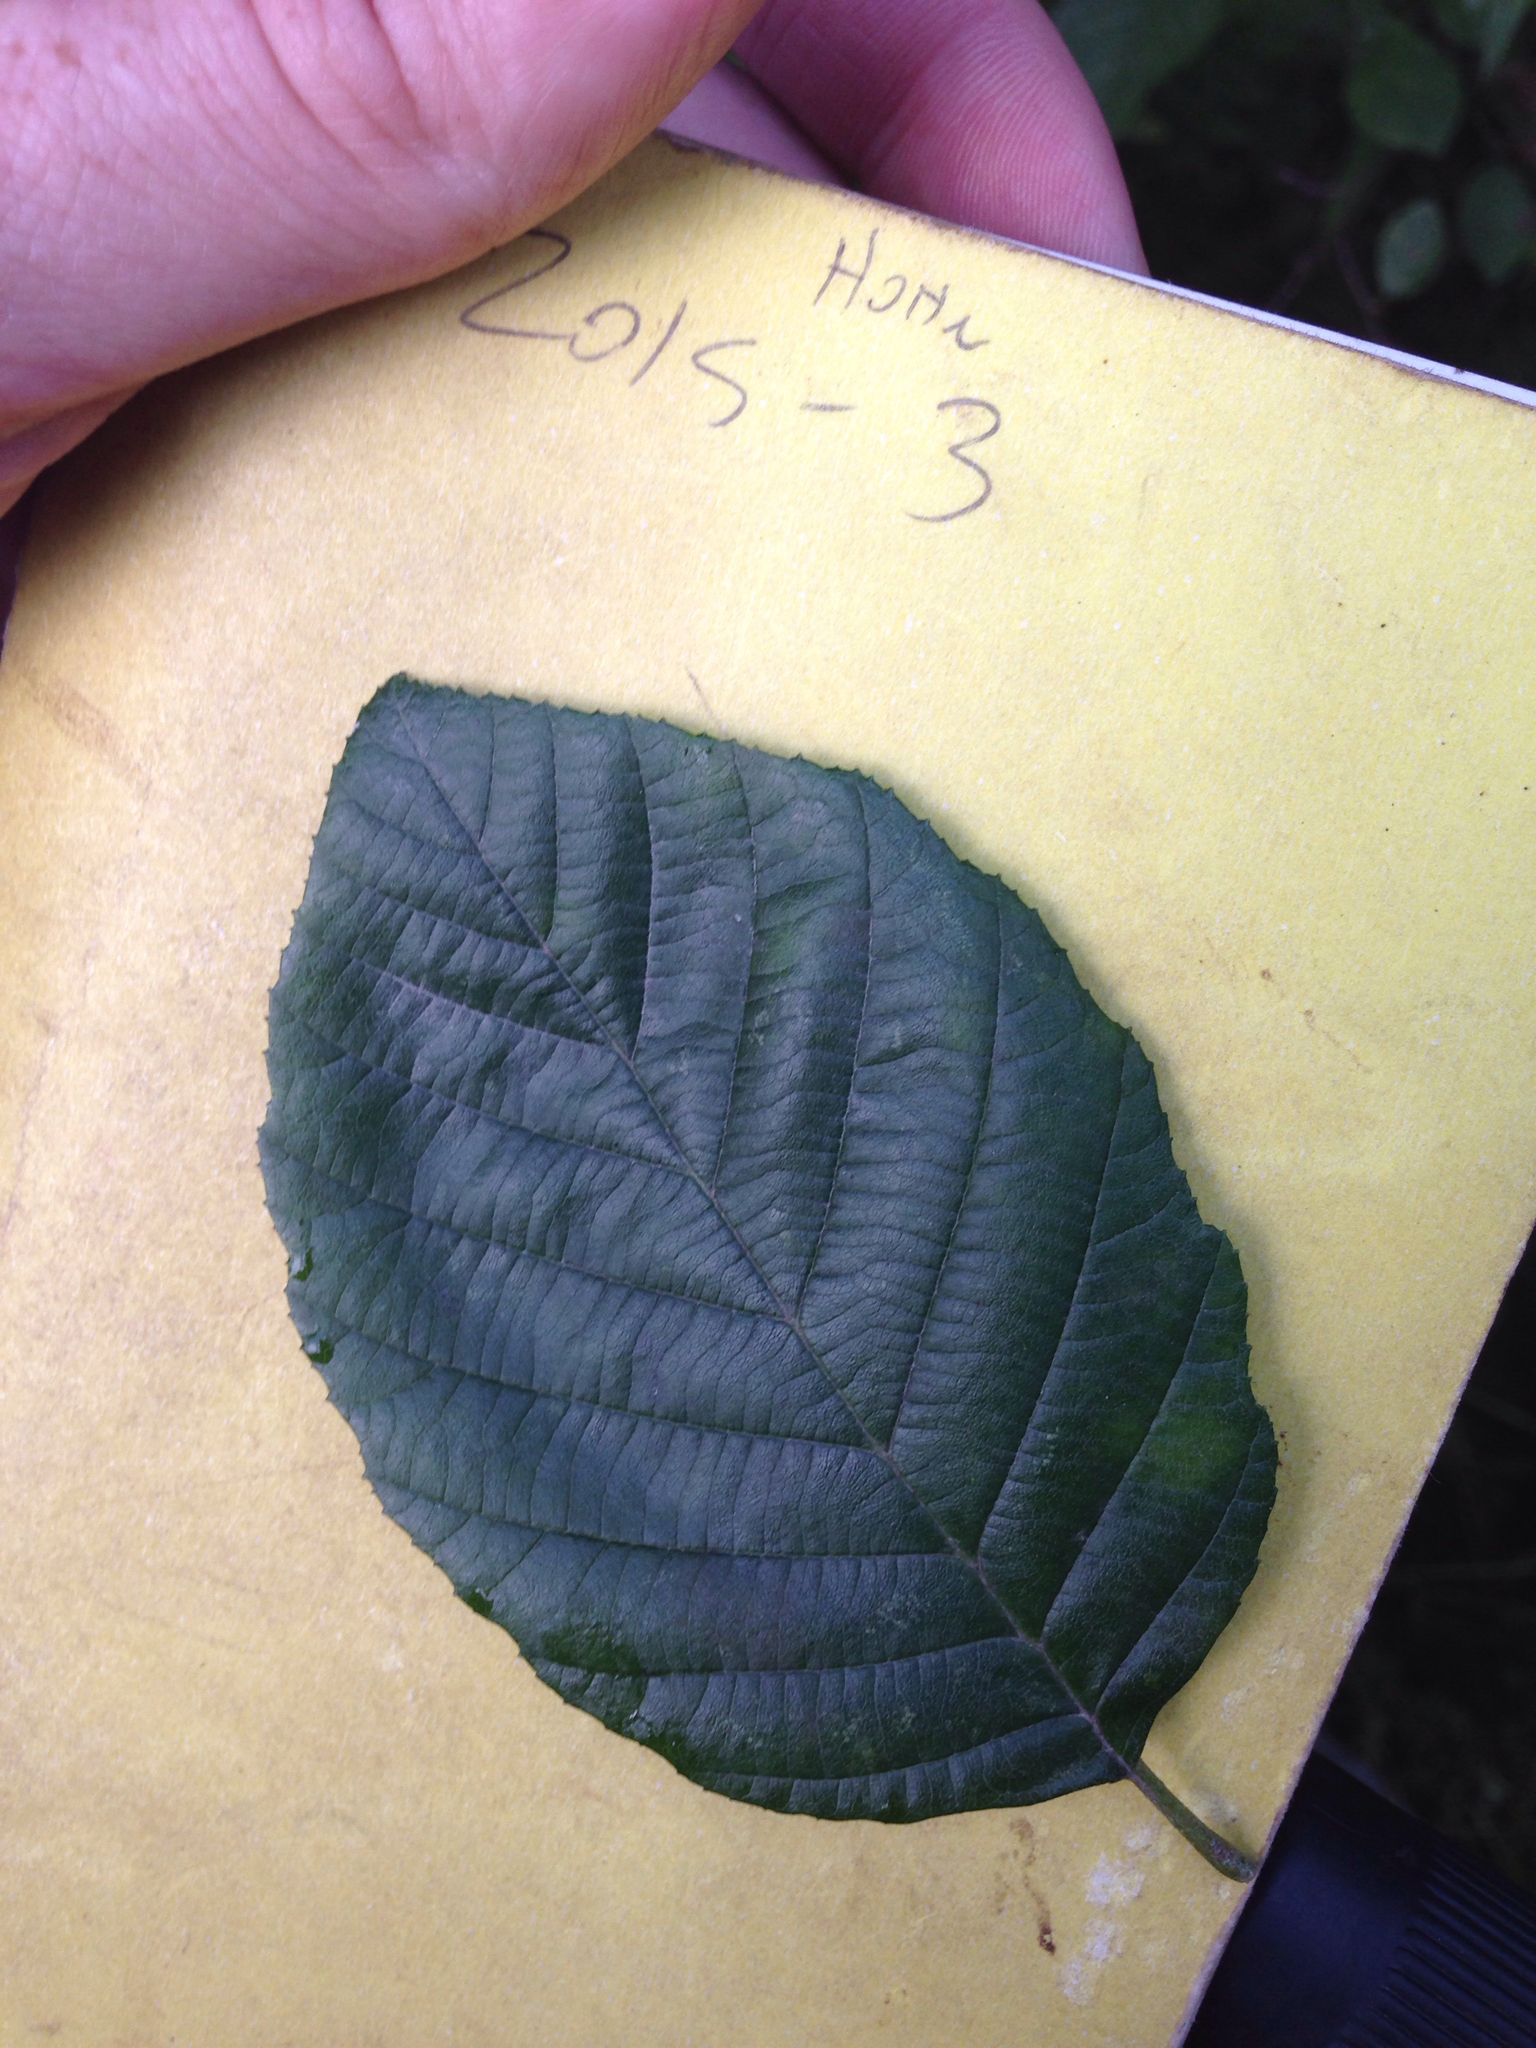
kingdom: Plantae
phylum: Tracheophyta
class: Magnoliopsida
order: Fagales
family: Betulaceae
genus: Alnus
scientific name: Alnus serrulata
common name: Hazel alder
